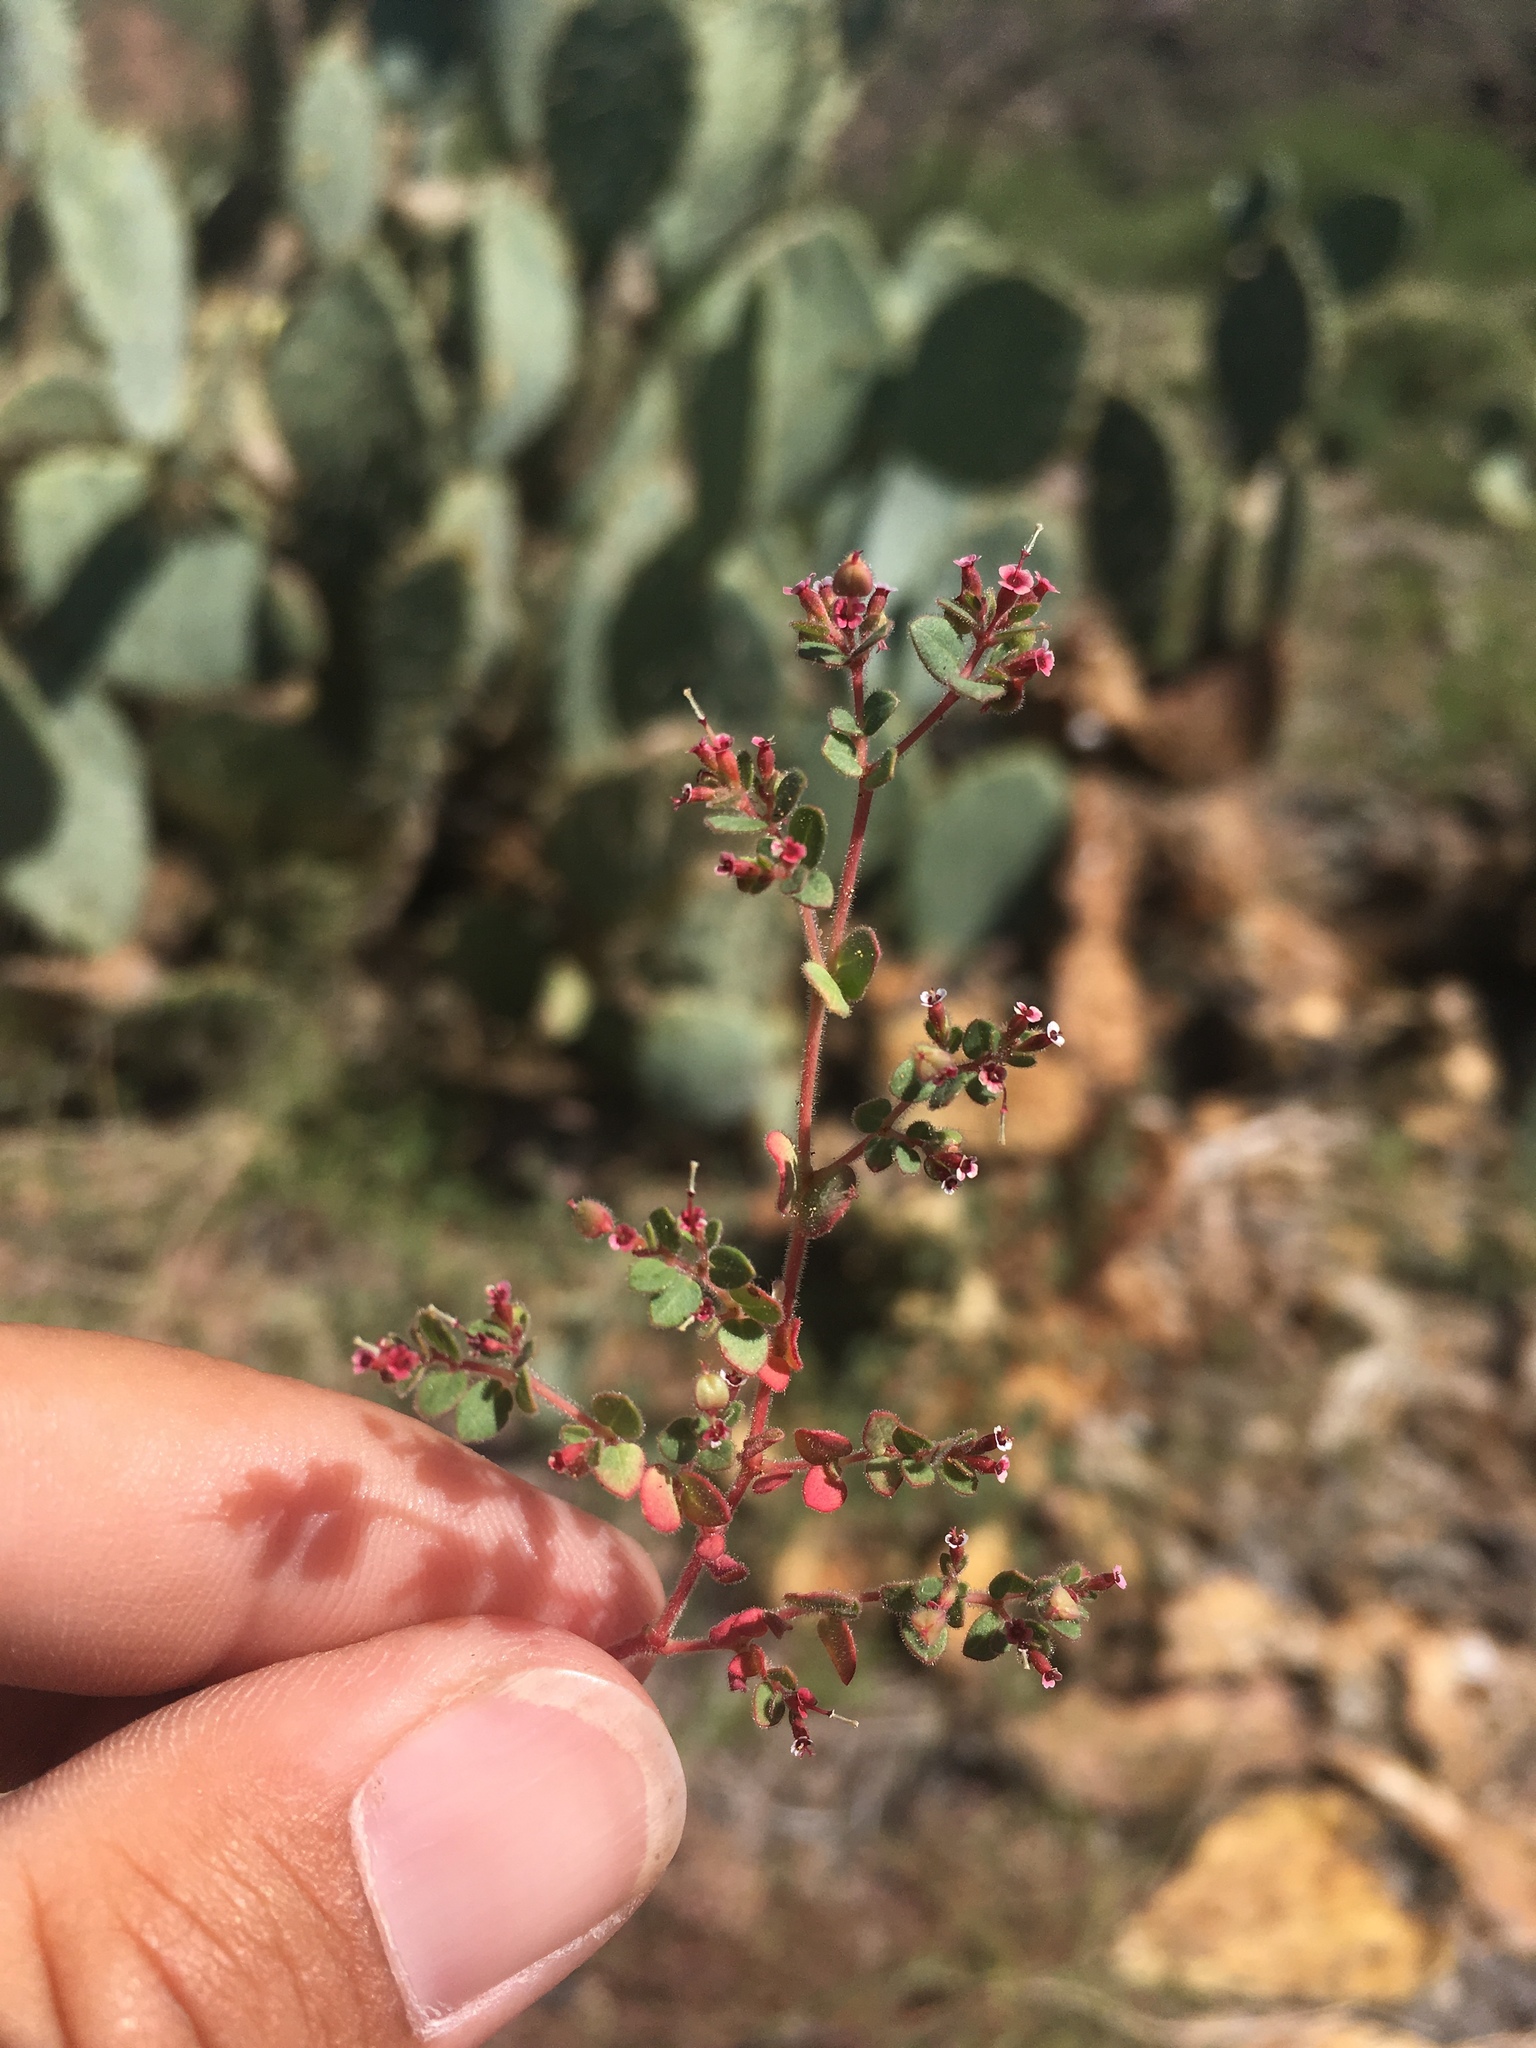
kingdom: Plantae
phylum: Tracheophyta
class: Magnoliopsida
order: Malpighiales
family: Euphorbiaceae
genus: Euphorbia
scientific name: Euphorbia arizonica
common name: Arizona spurge
